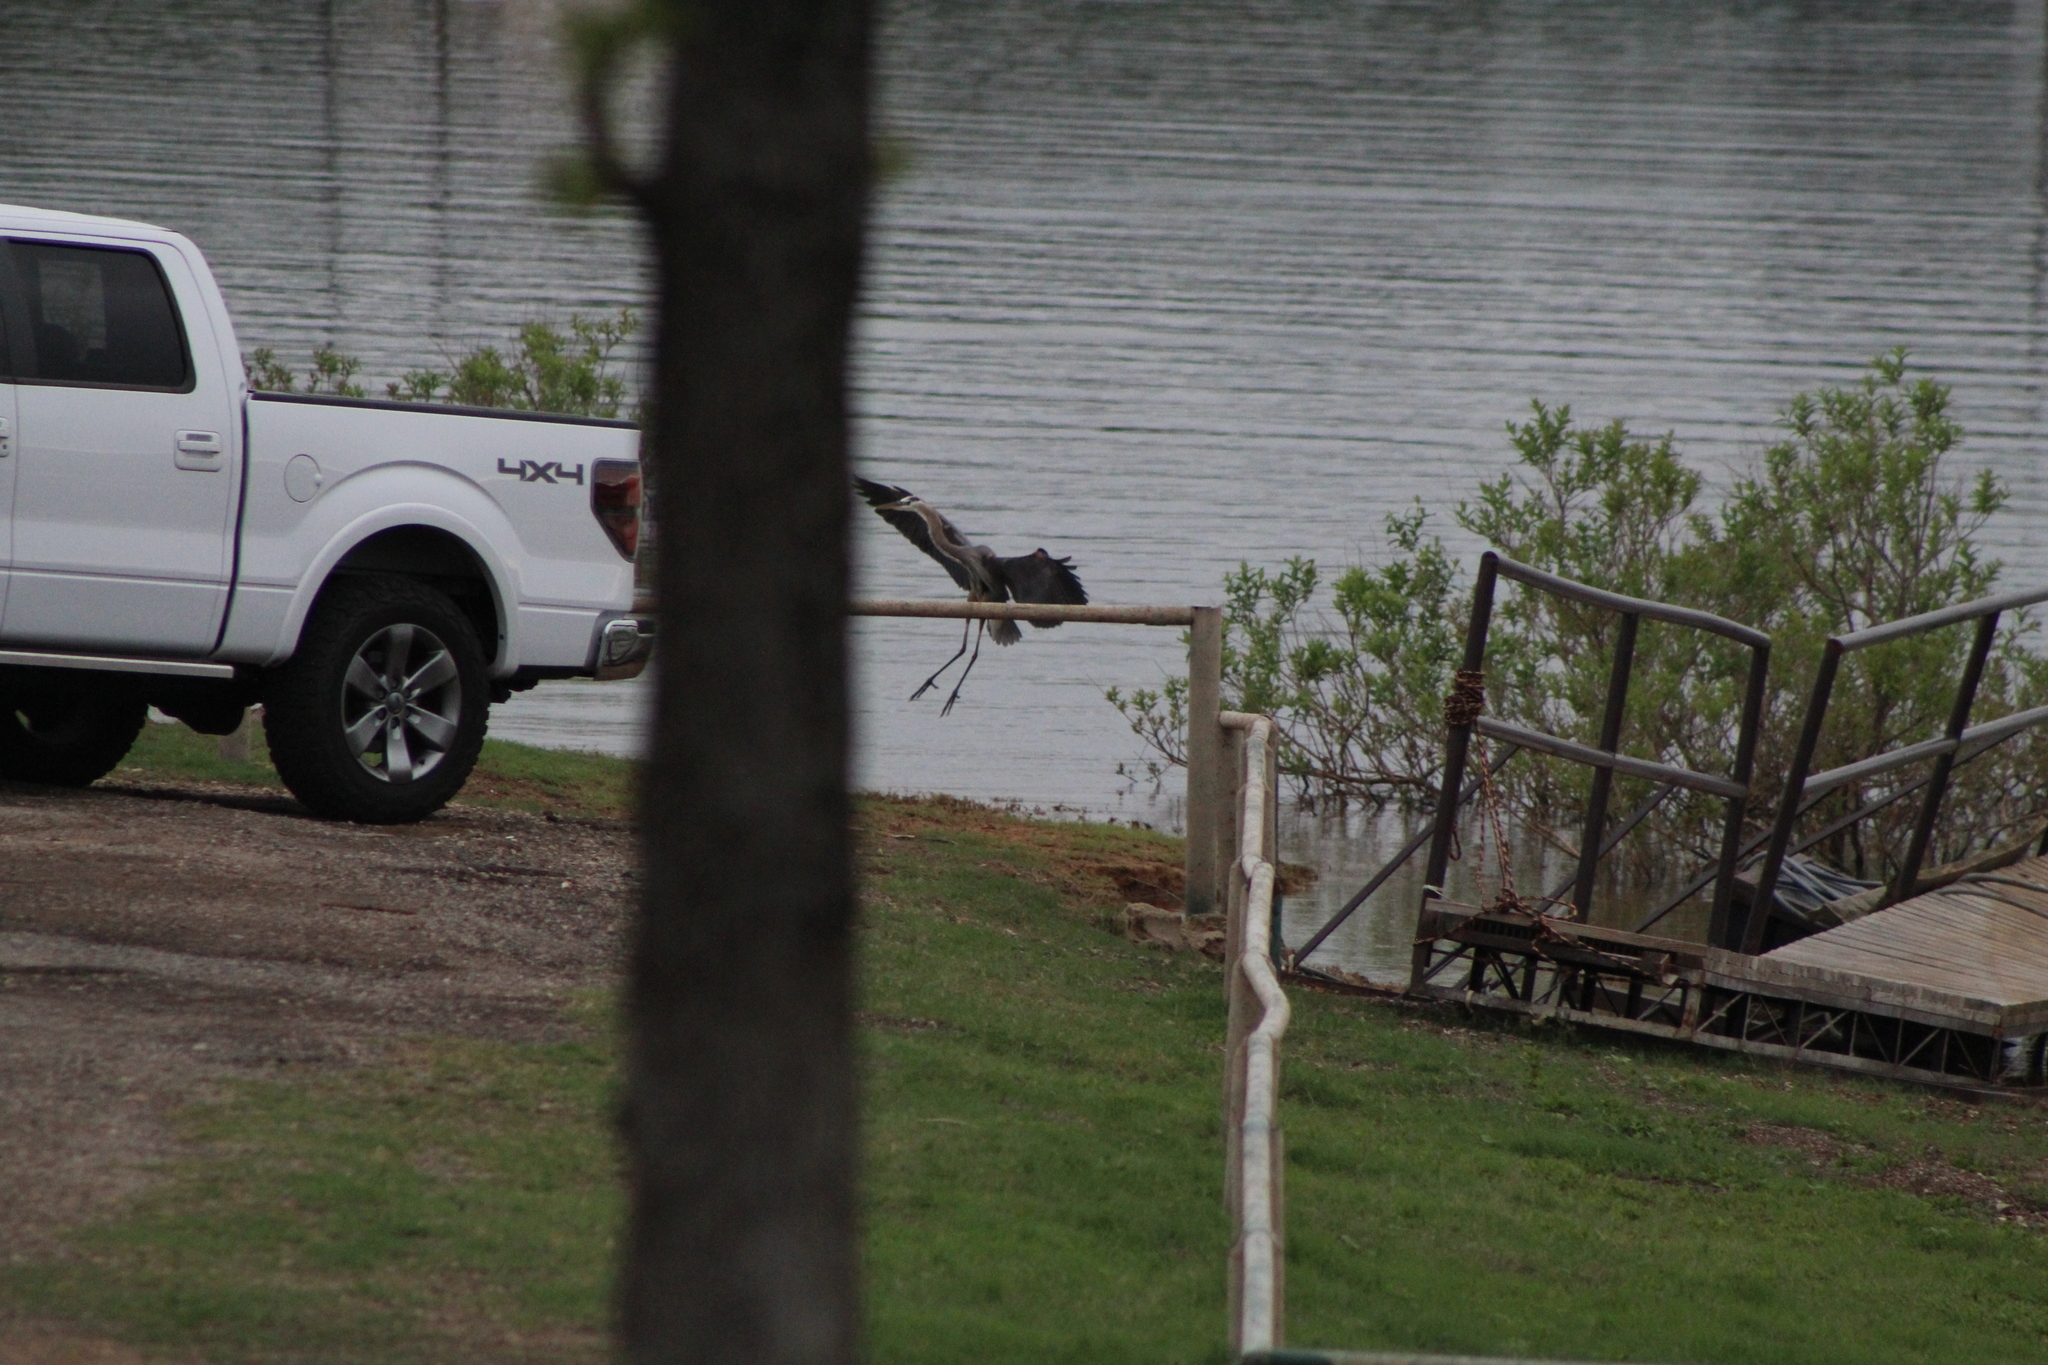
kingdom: Animalia
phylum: Chordata
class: Aves
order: Pelecaniformes
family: Ardeidae
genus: Ardea
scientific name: Ardea herodias
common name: Great blue heron
